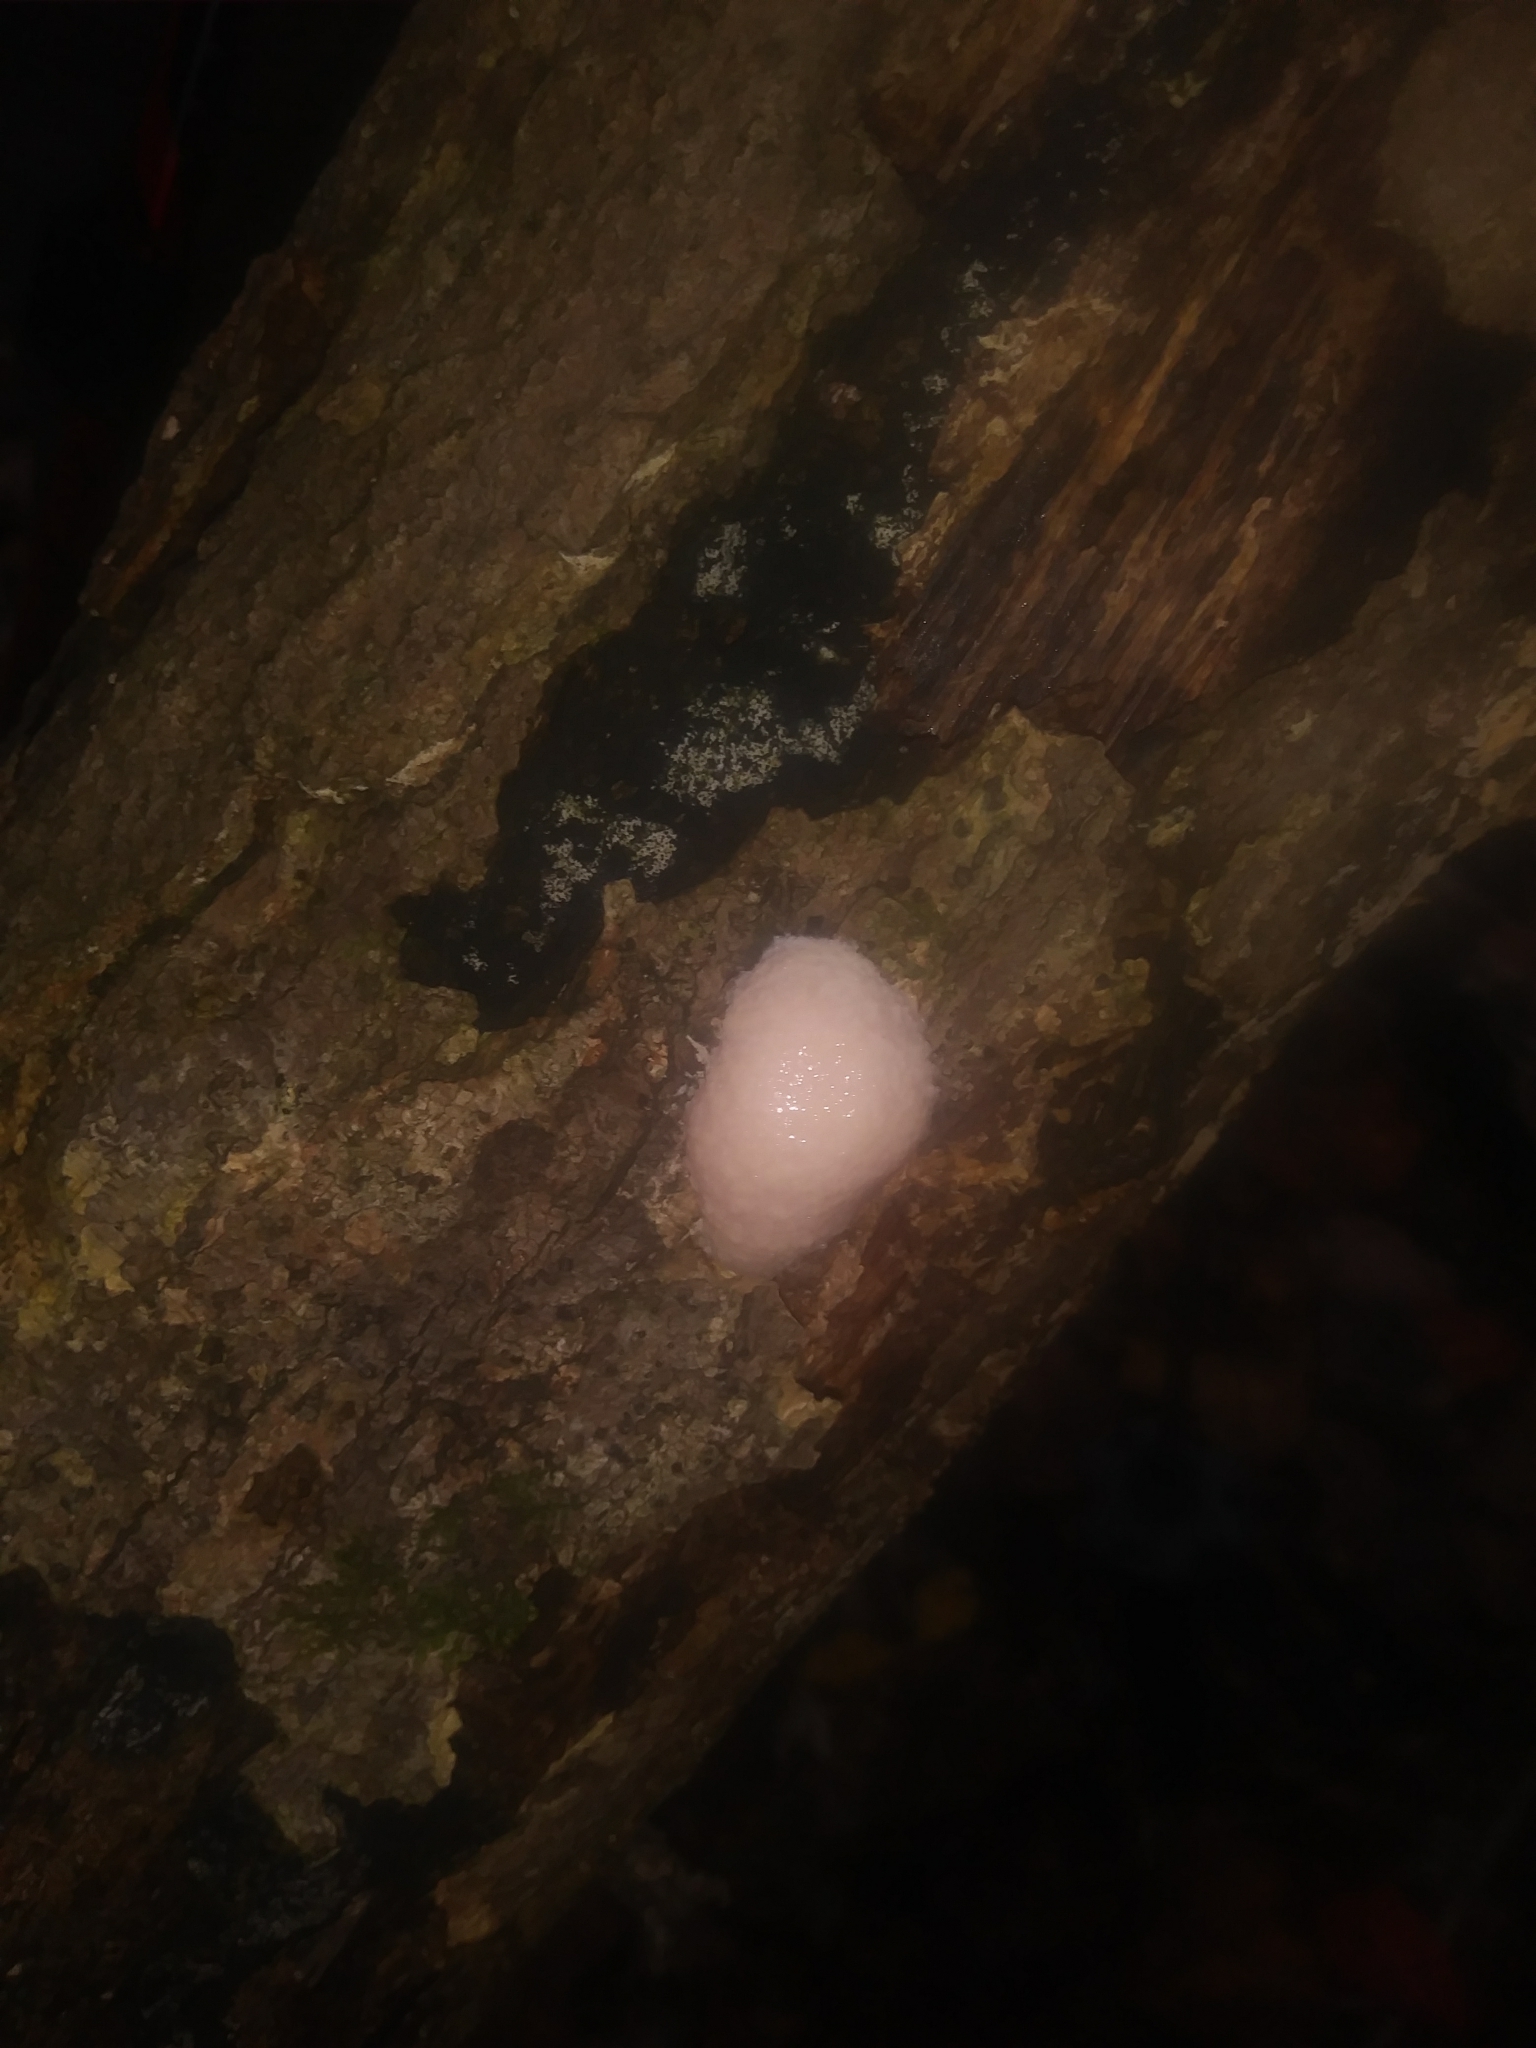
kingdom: Protozoa
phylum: Mycetozoa
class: Myxomycetes
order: Cribrariales
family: Tubiferaceae
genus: Reticularia
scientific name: Reticularia lycoperdon
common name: False puffball
